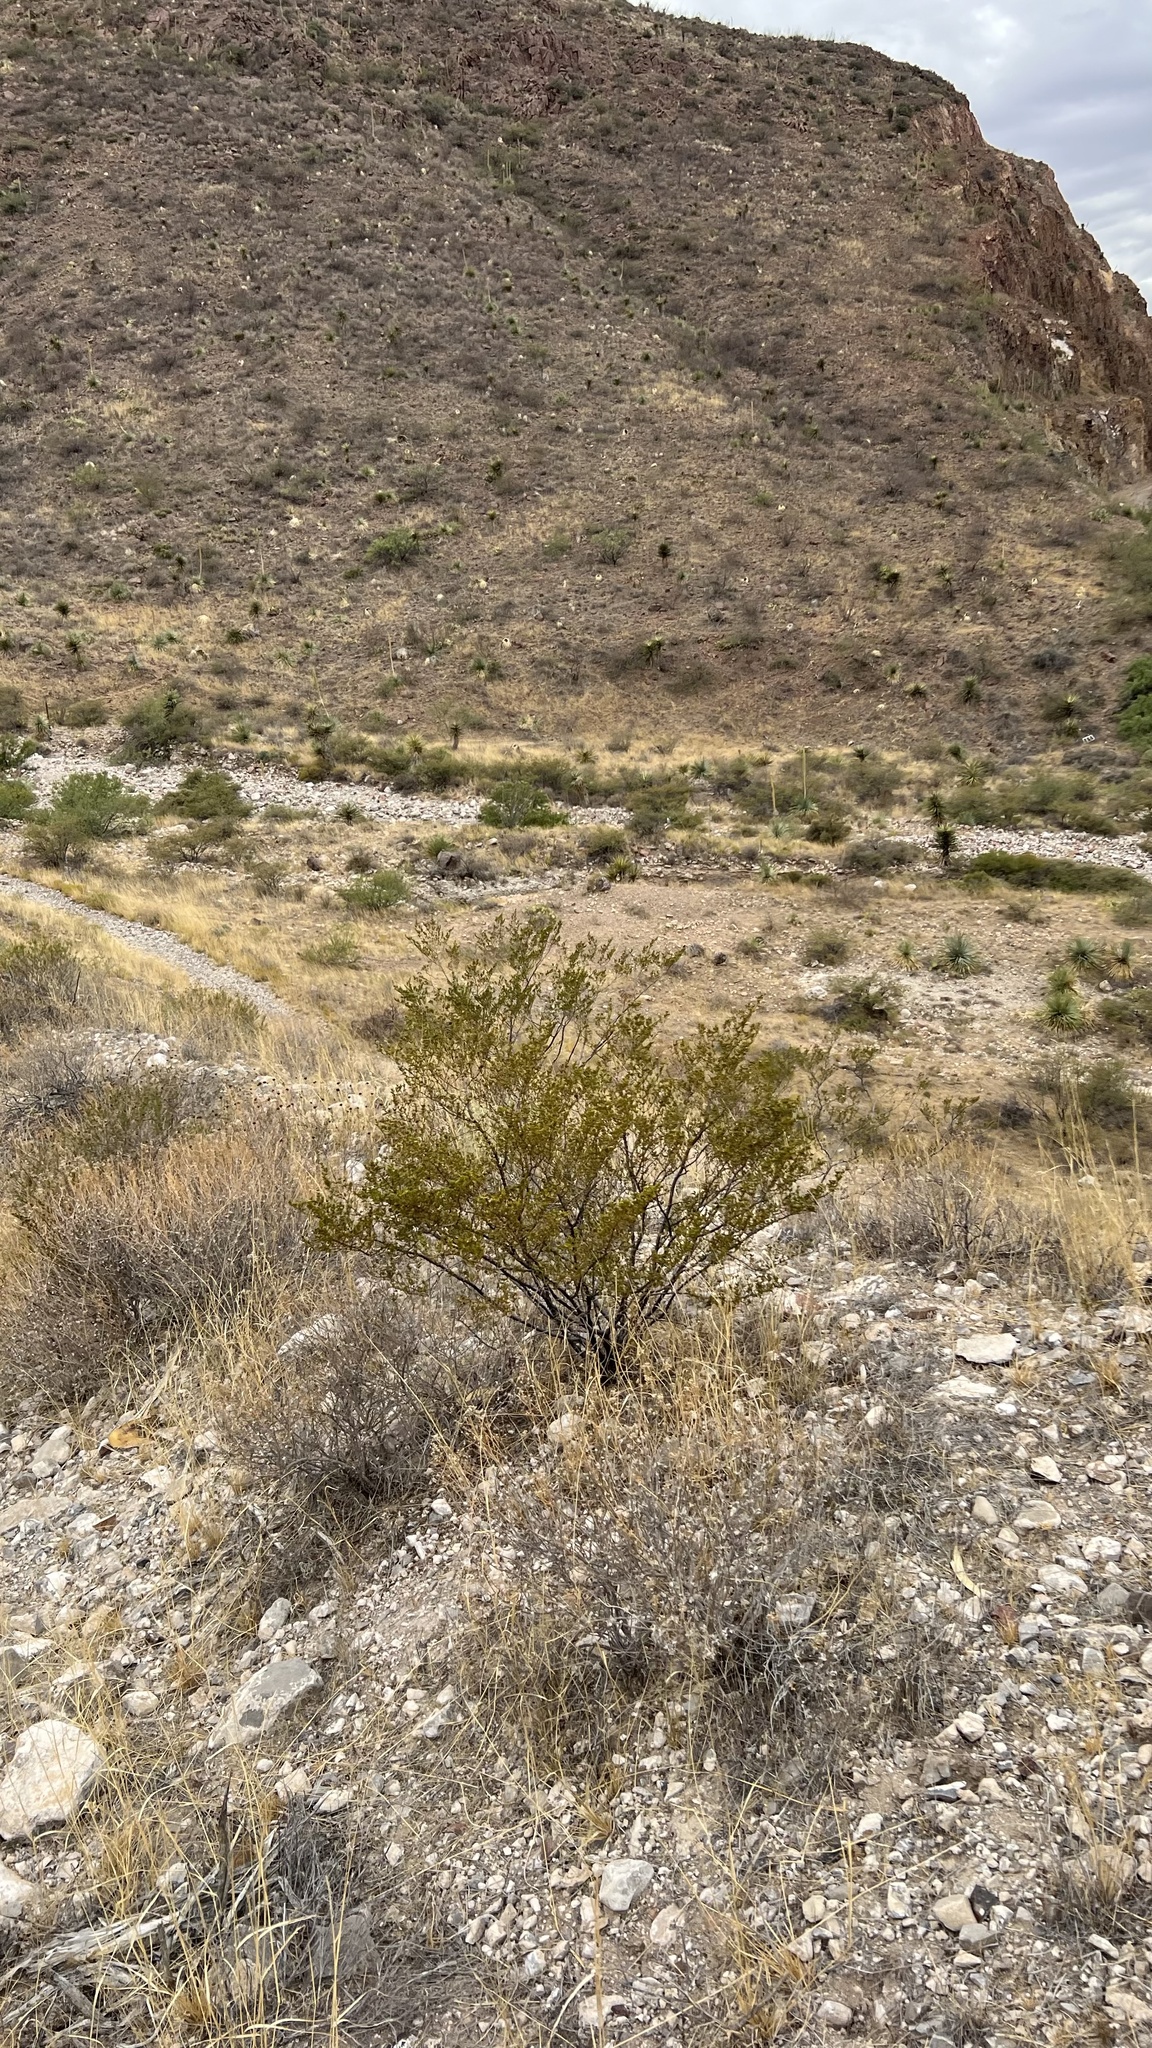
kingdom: Plantae
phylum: Tracheophyta
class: Magnoliopsida
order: Zygophyllales
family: Zygophyllaceae
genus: Larrea
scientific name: Larrea tridentata
